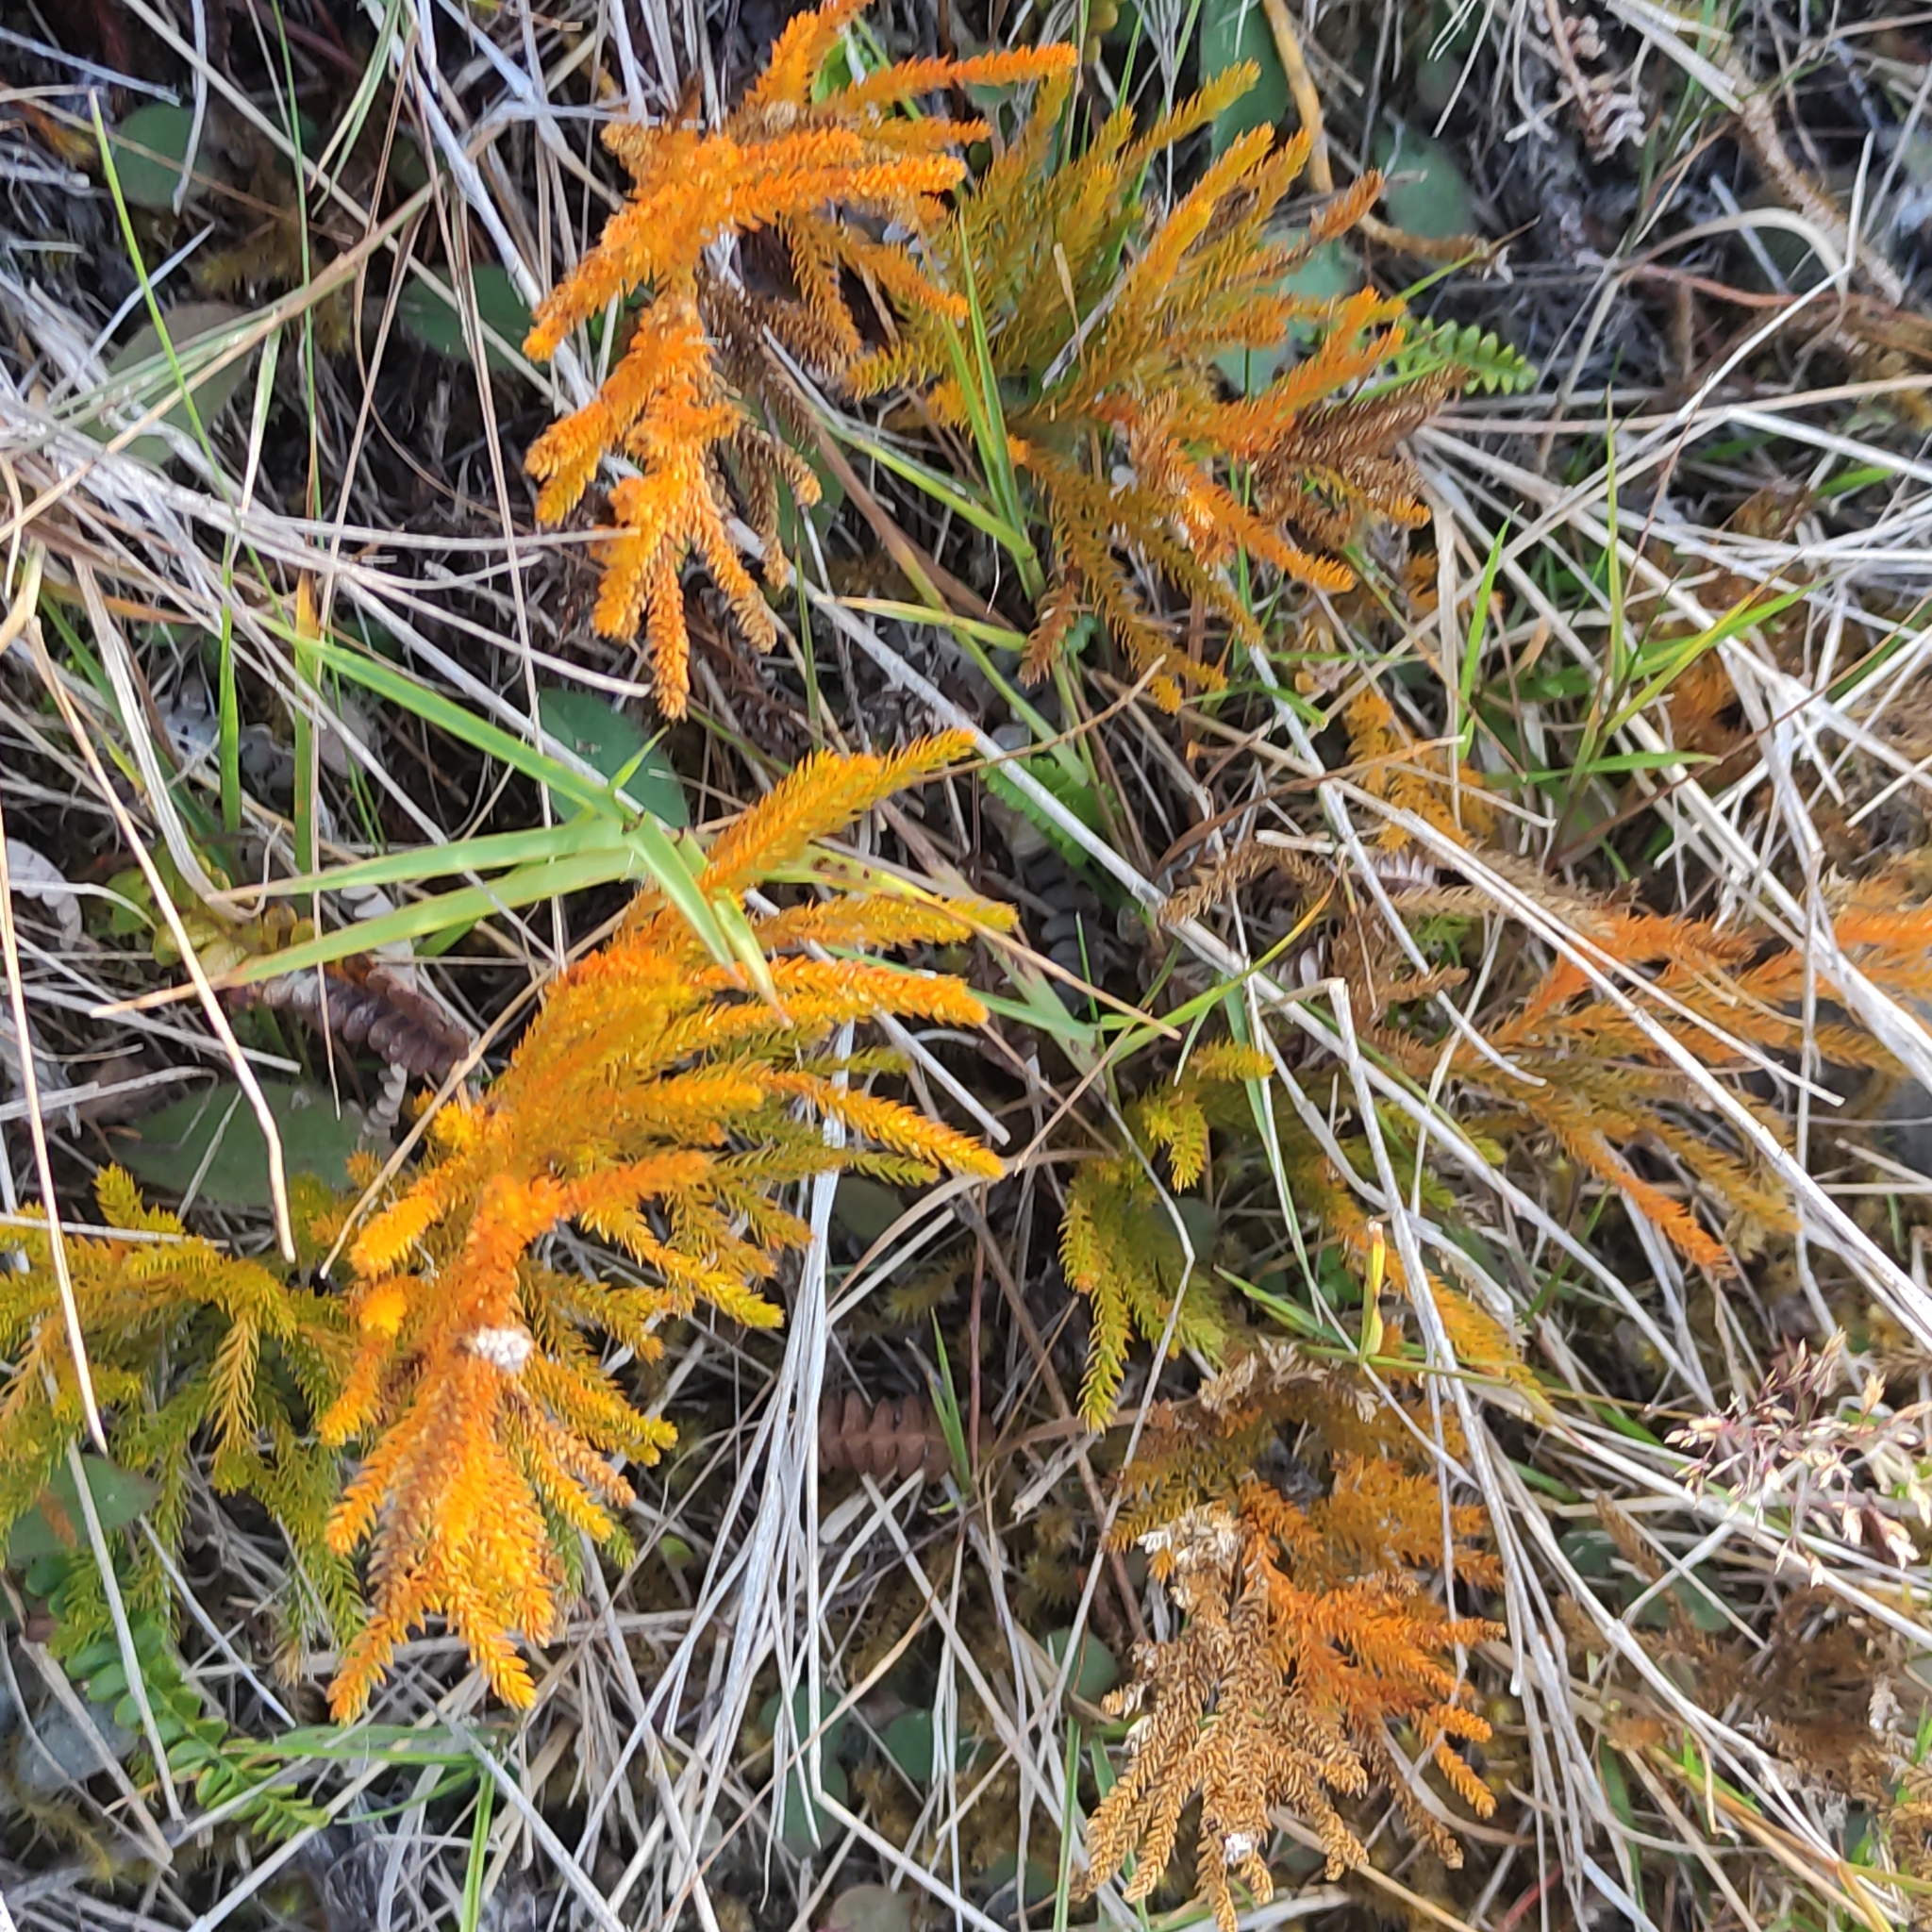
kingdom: Plantae
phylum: Tracheophyta
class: Lycopodiopsida
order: Lycopodiales
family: Lycopodiaceae
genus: Austrolycopodium
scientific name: Austrolycopodium fastigiatum
